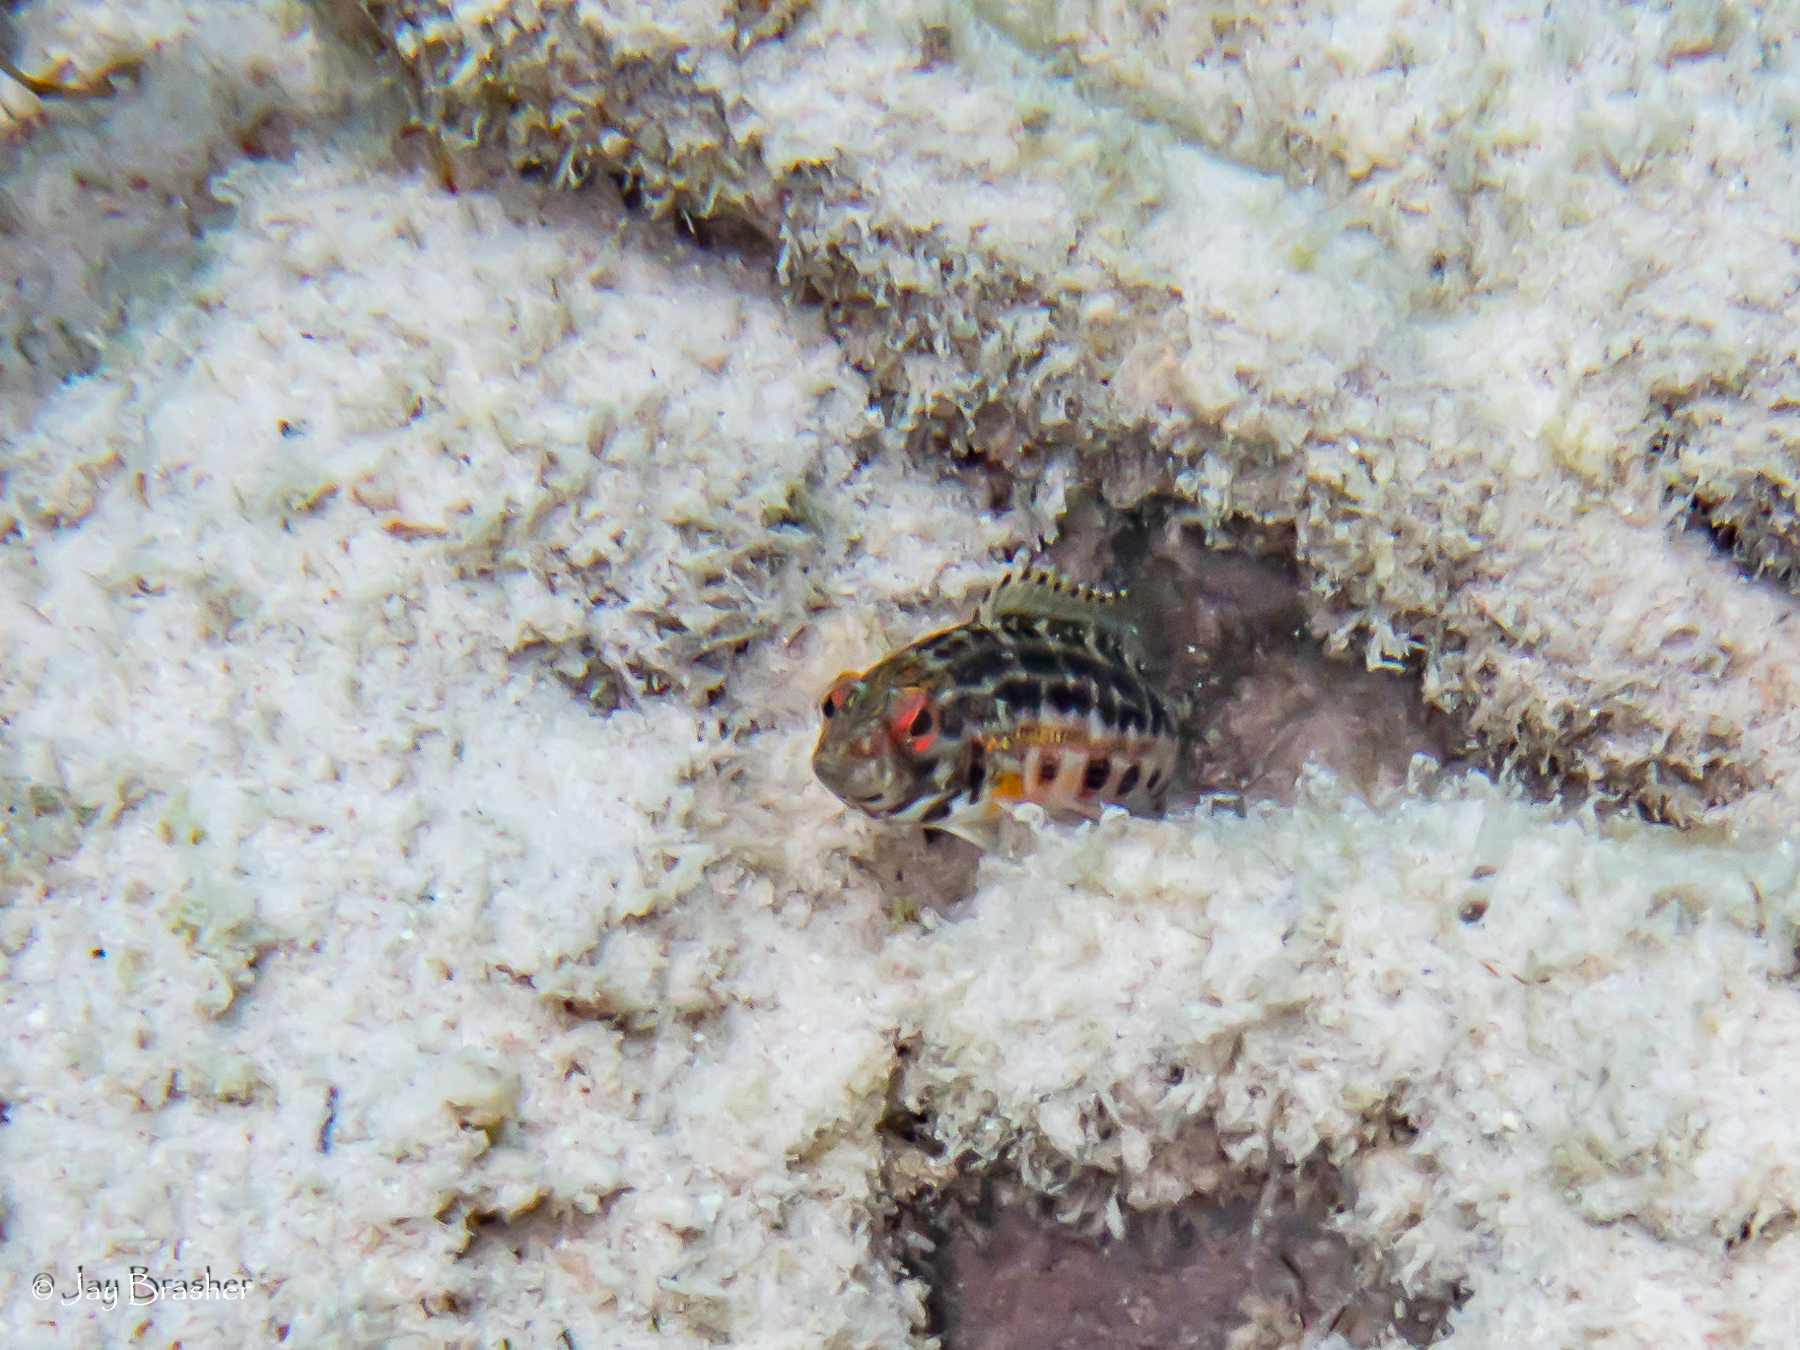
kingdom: Animalia
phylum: Chordata
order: Perciformes
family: Serranidae
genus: Serranus
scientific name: Serranus baldwini
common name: Lantern bass
